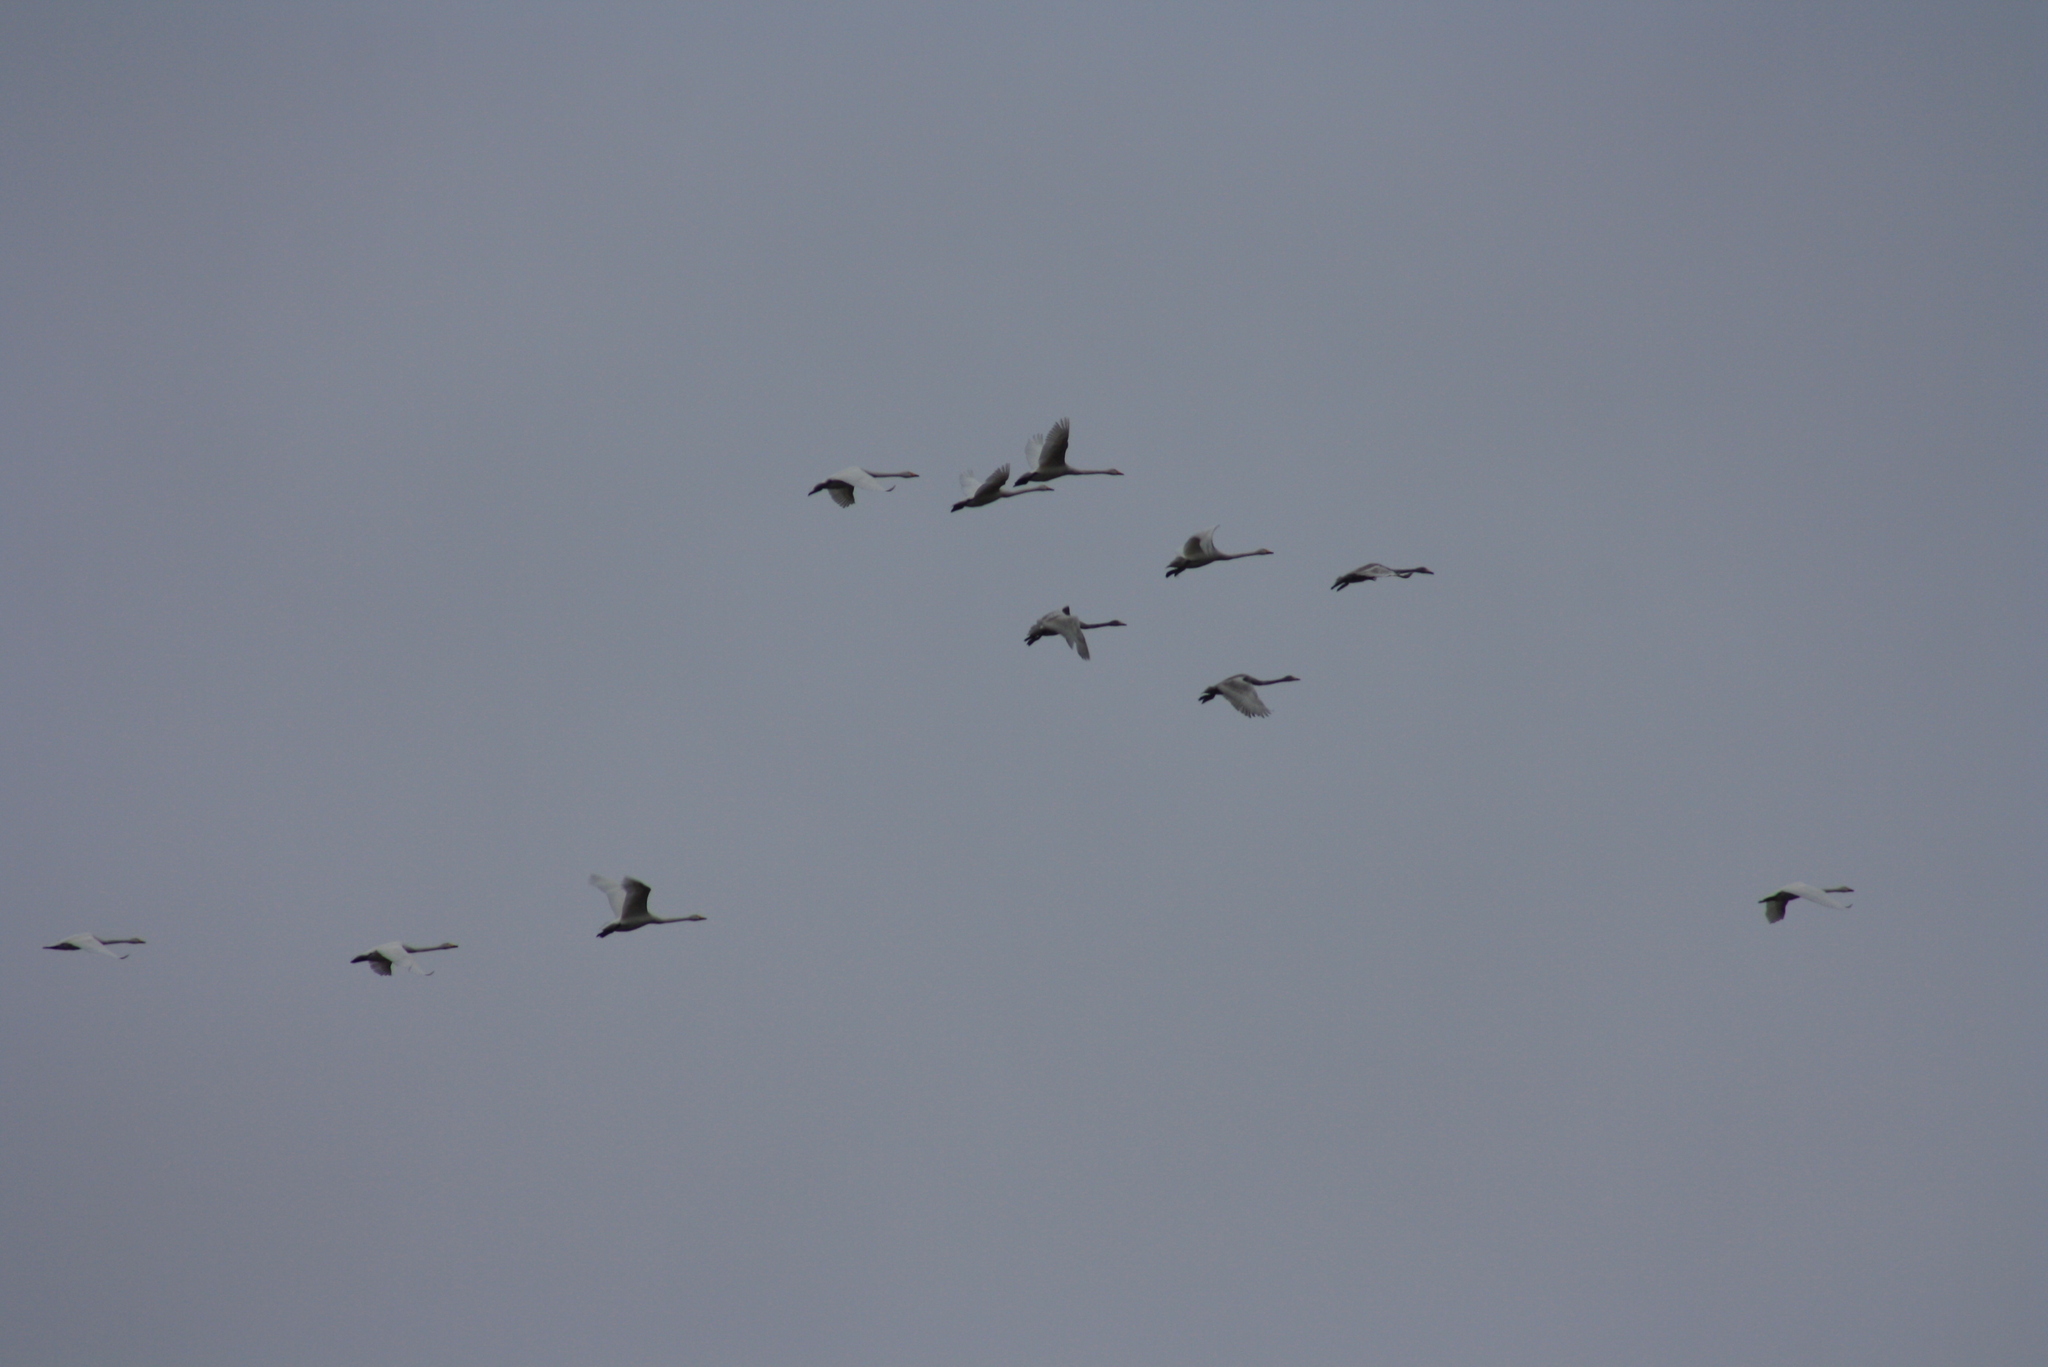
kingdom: Animalia
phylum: Chordata
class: Aves
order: Anseriformes
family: Anatidae
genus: Cygnus
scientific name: Cygnus cygnus
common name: Whooper swan
